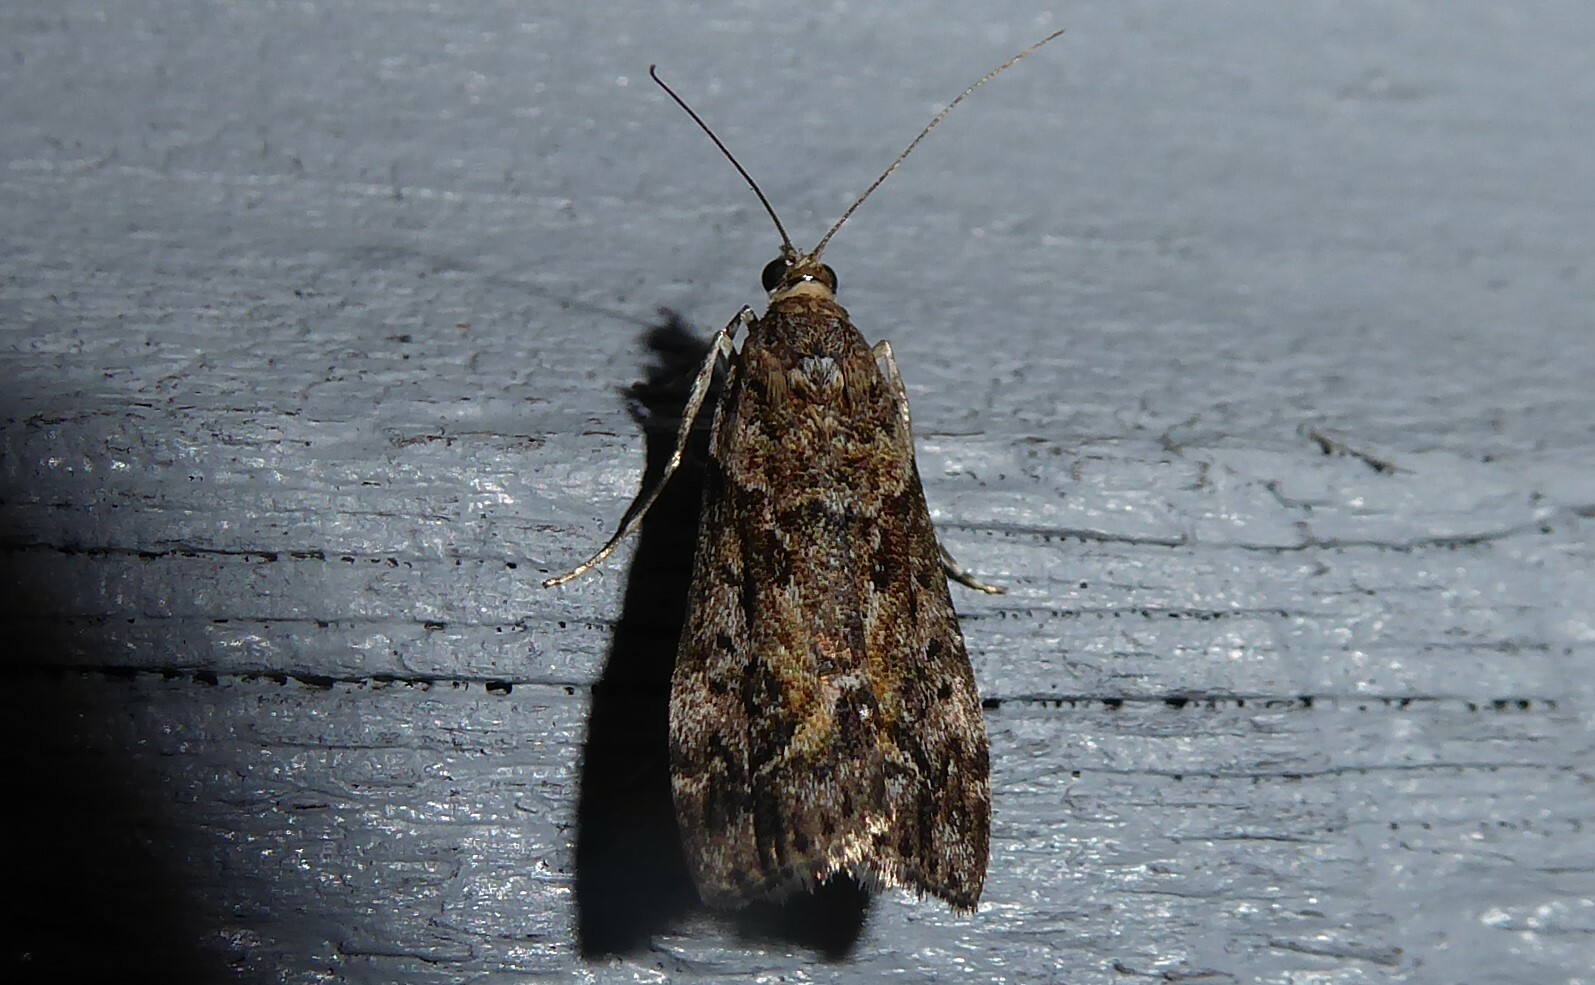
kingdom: Animalia
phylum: Arthropoda
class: Insecta
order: Lepidoptera
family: Crambidae
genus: Eudonia
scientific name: Eudonia submarginalis
